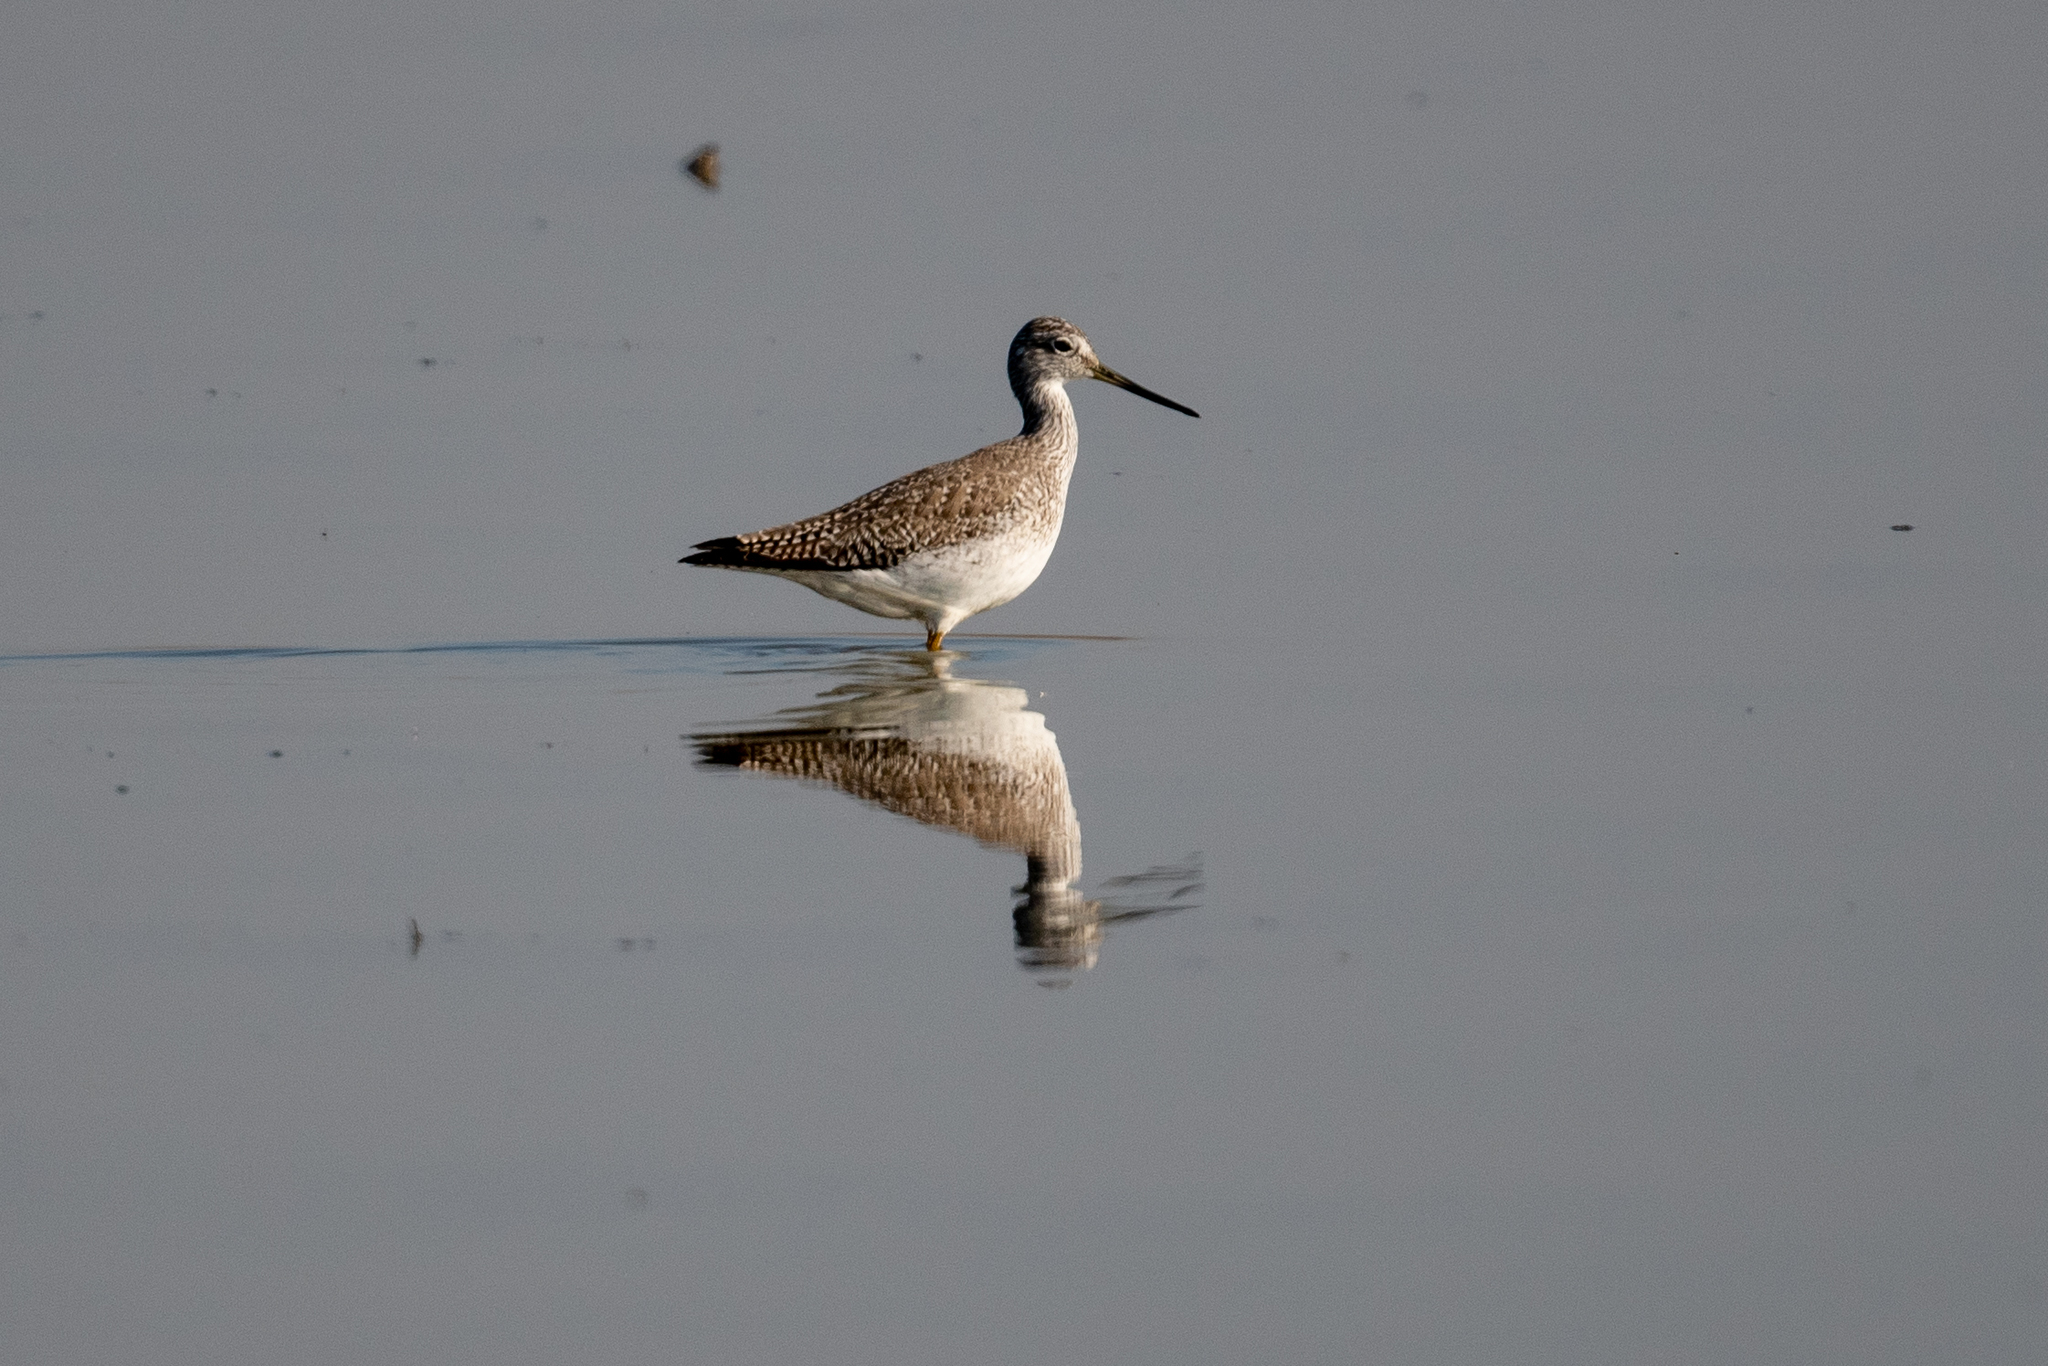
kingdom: Animalia
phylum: Chordata
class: Aves
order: Charadriiformes
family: Scolopacidae
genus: Tringa
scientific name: Tringa melanoleuca
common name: Greater yellowlegs
